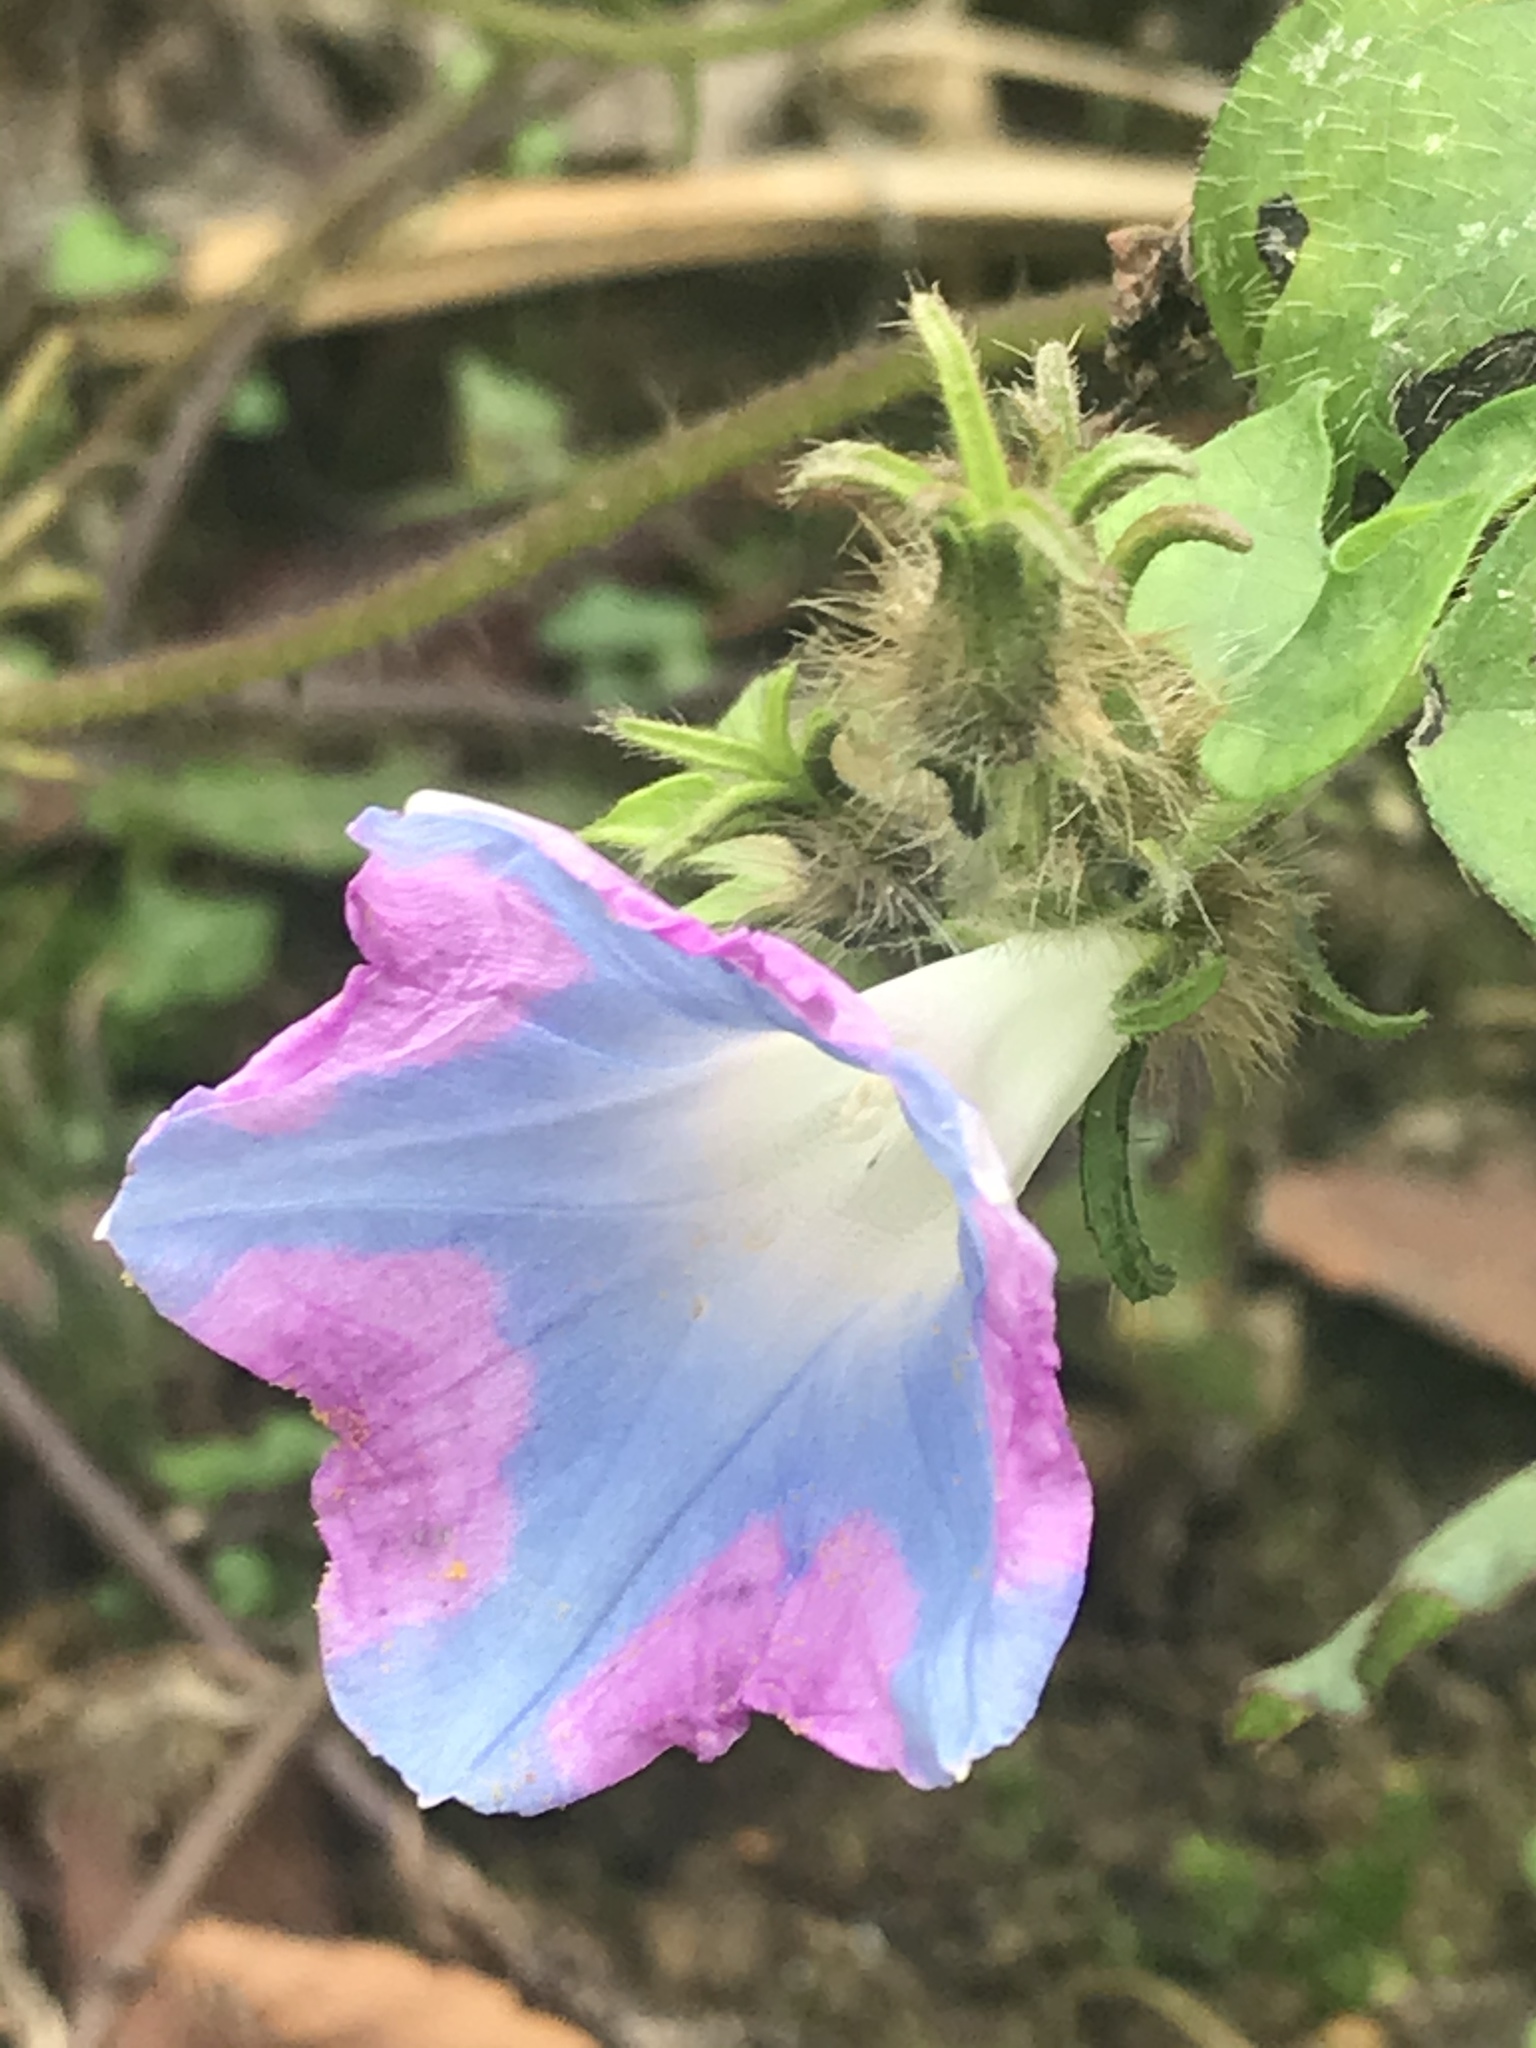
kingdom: Plantae
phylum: Tracheophyta
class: Magnoliopsida
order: Solanales
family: Convolvulaceae
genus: Ipomoea
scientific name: Ipomoea hederacea
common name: Ivy-leaved morning-glory
